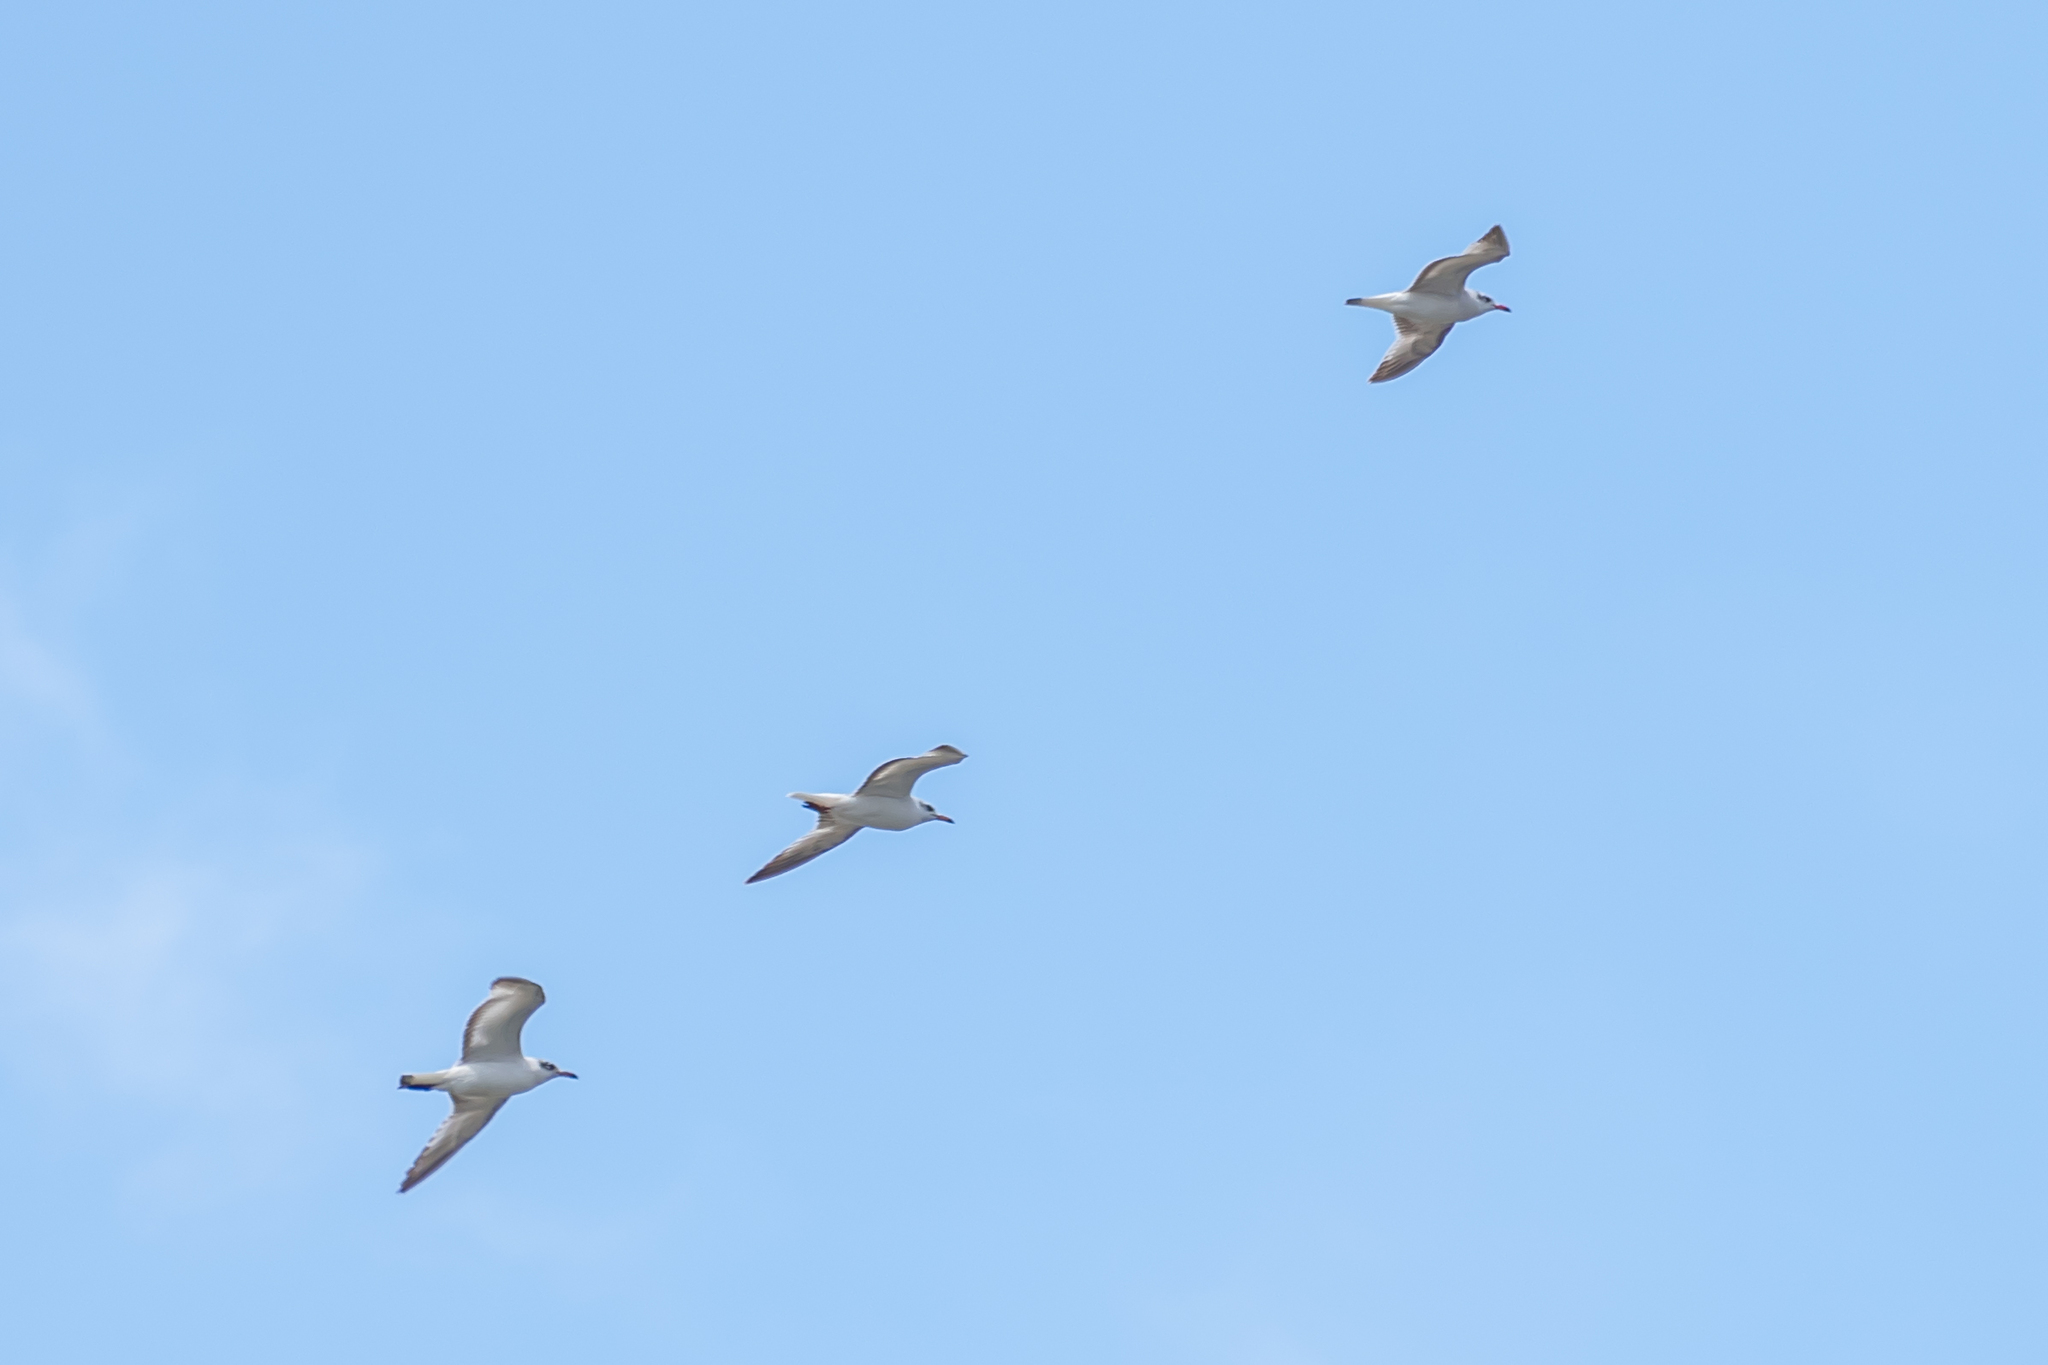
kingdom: Animalia
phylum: Chordata
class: Aves
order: Charadriiformes
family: Laridae
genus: Ichthyaetus
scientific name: Ichthyaetus melanocephalus
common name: Mediterranean gull
